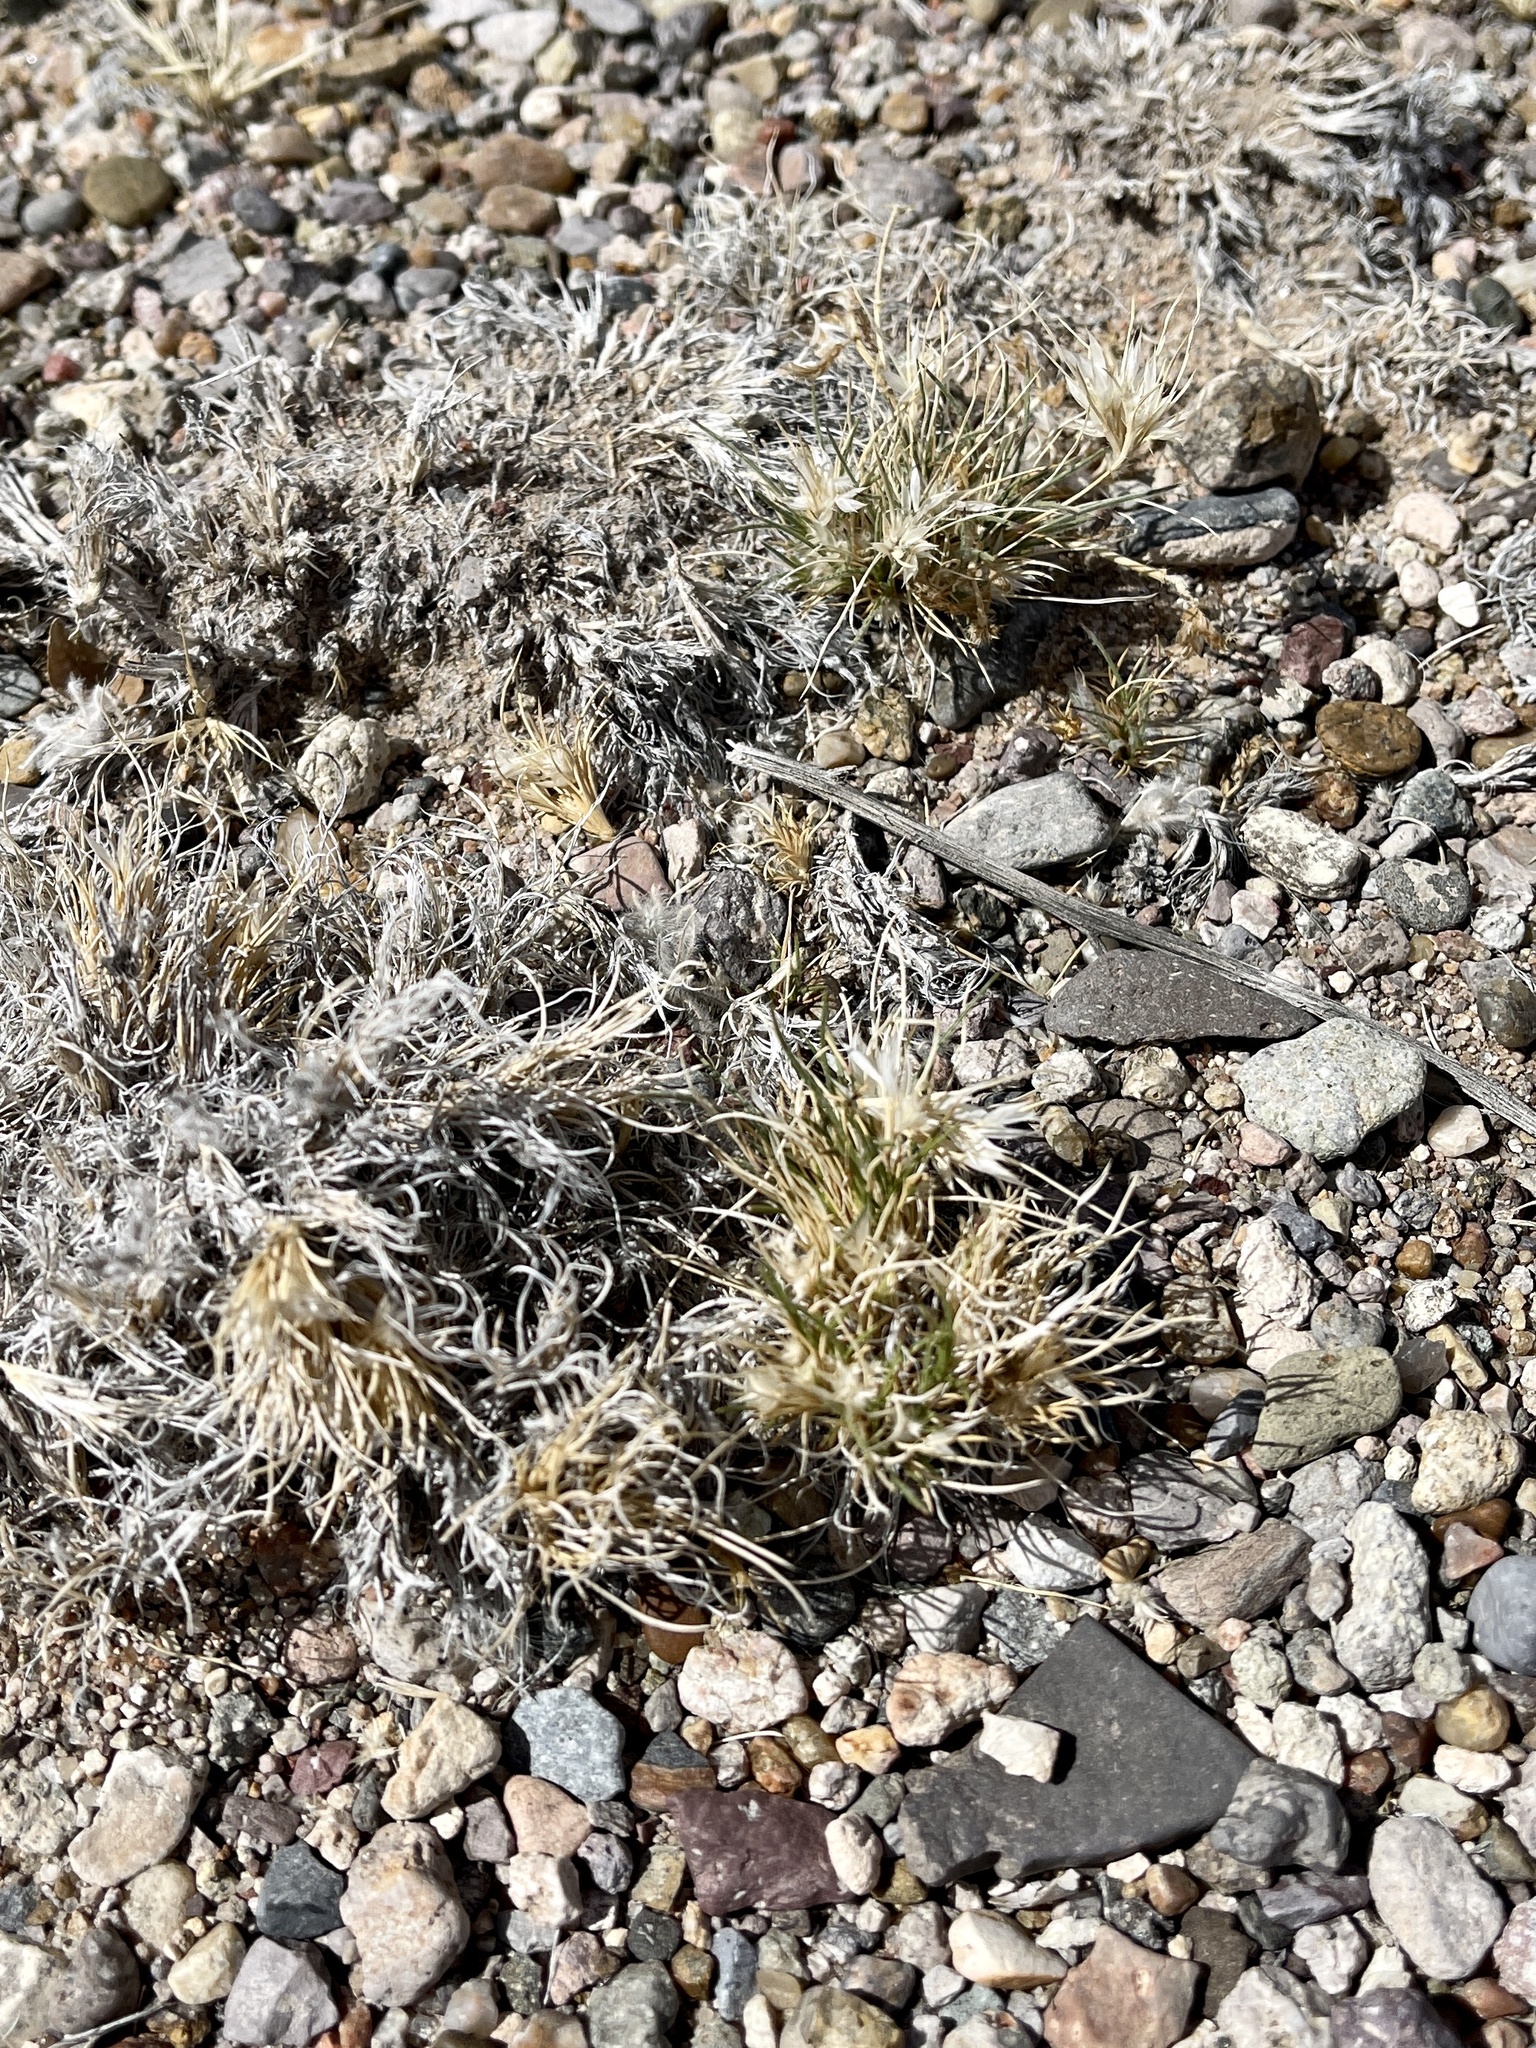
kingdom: Plantae
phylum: Tracheophyta
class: Liliopsida
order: Poales
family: Poaceae
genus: Dasyochloa
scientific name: Dasyochloa pulchella
